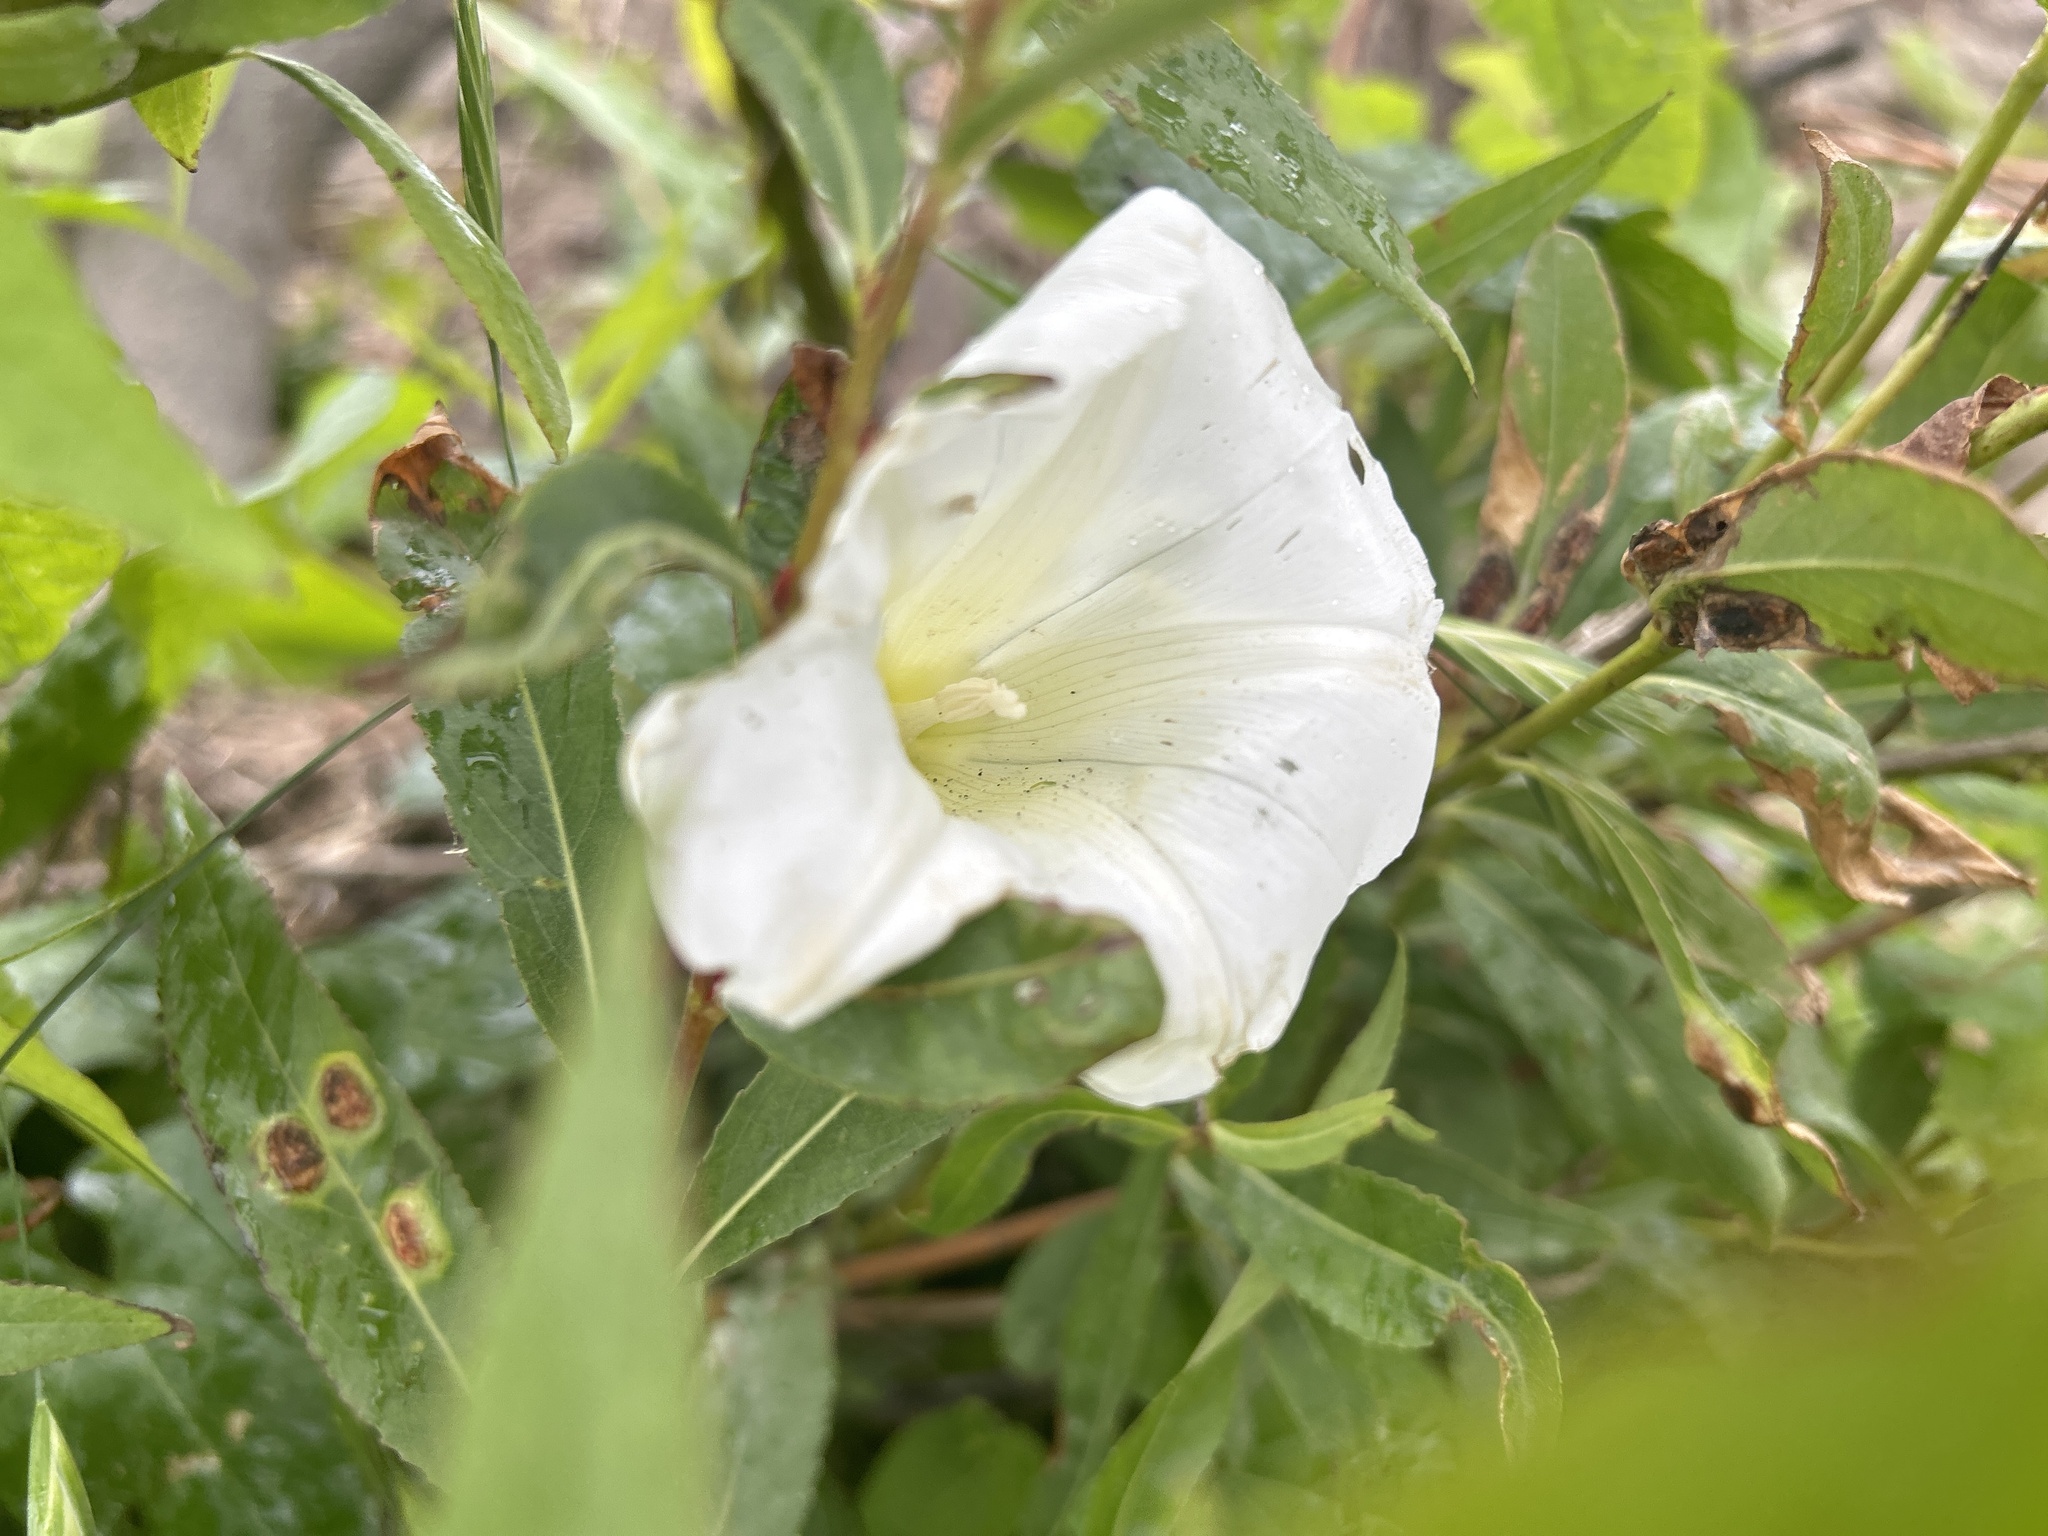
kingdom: Plantae
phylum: Tracheophyta
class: Magnoliopsida
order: Solanales
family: Convolvulaceae
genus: Calystegia
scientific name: Calystegia silvatica
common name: Large bindweed
